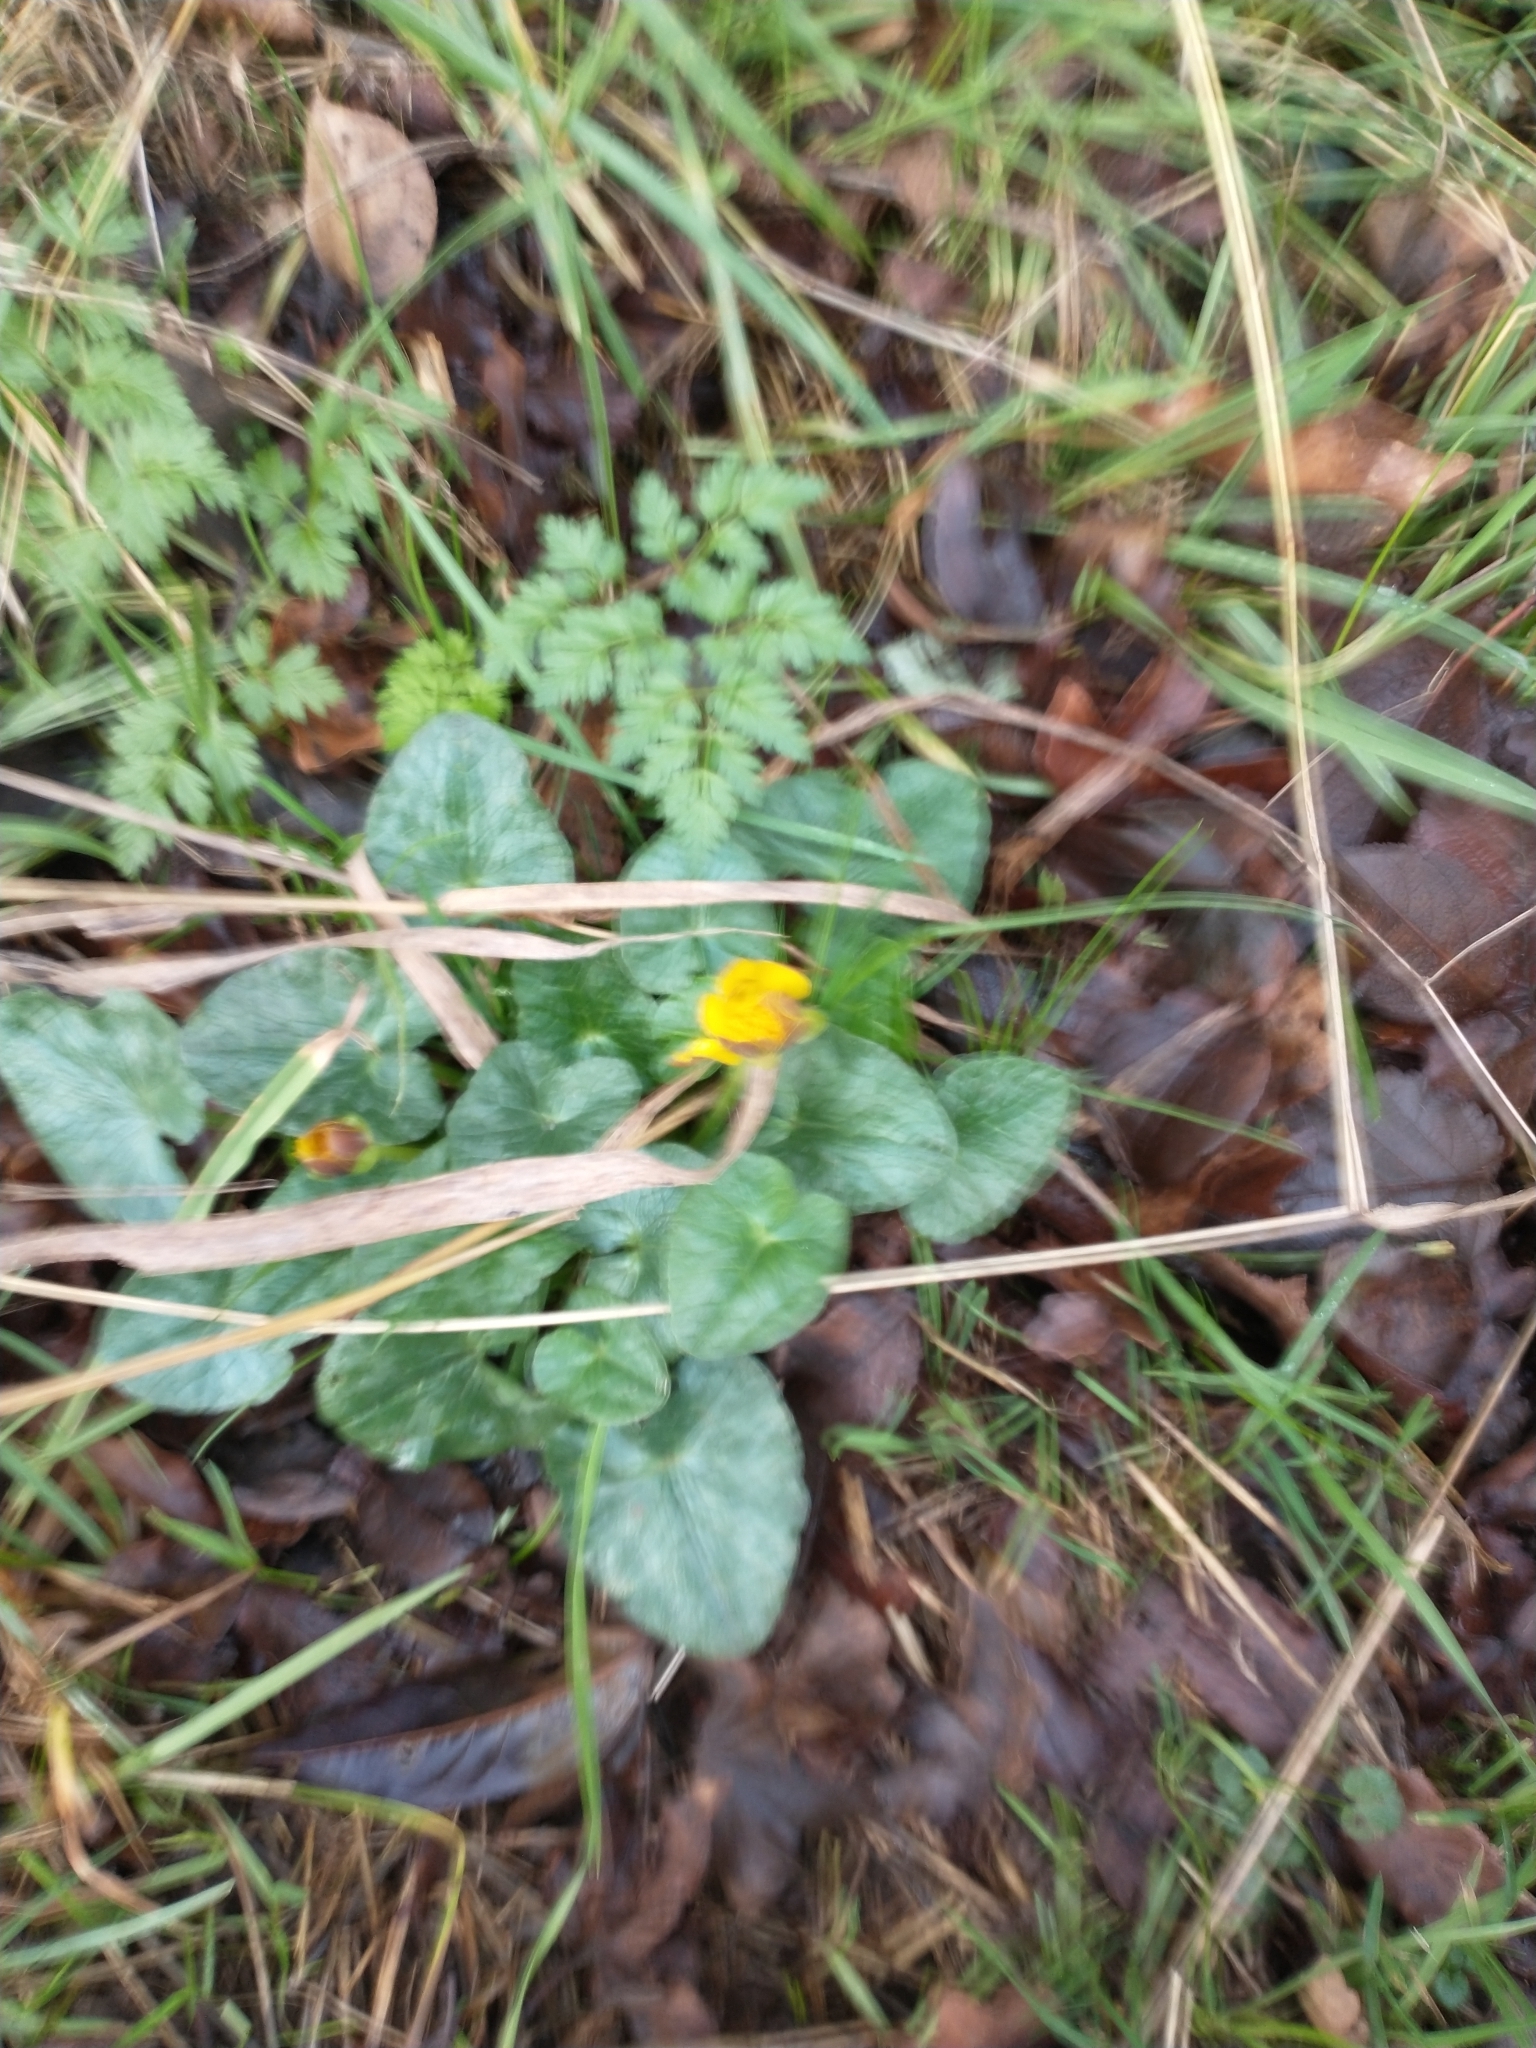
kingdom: Plantae
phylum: Tracheophyta
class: Magnoliopsida
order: Ranunculales
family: Ranunculaceae
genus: Ficaria
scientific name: Ficaria verna
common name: Lesser celandine
